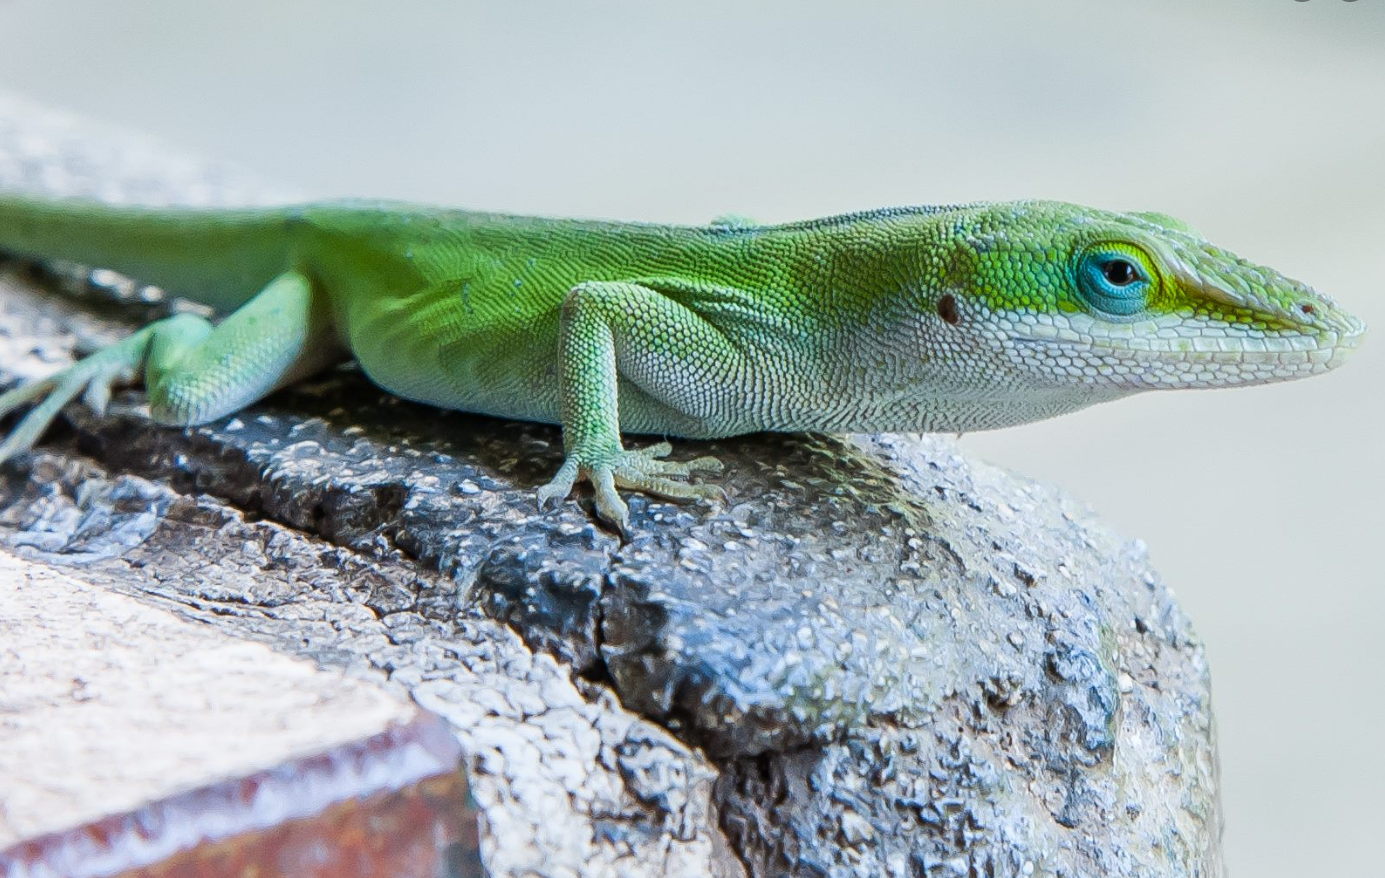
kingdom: Animalia
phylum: Chordata
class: Squamata
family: Dactyloidae
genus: Anolis
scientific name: Anolis carolinensis
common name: Green anole
